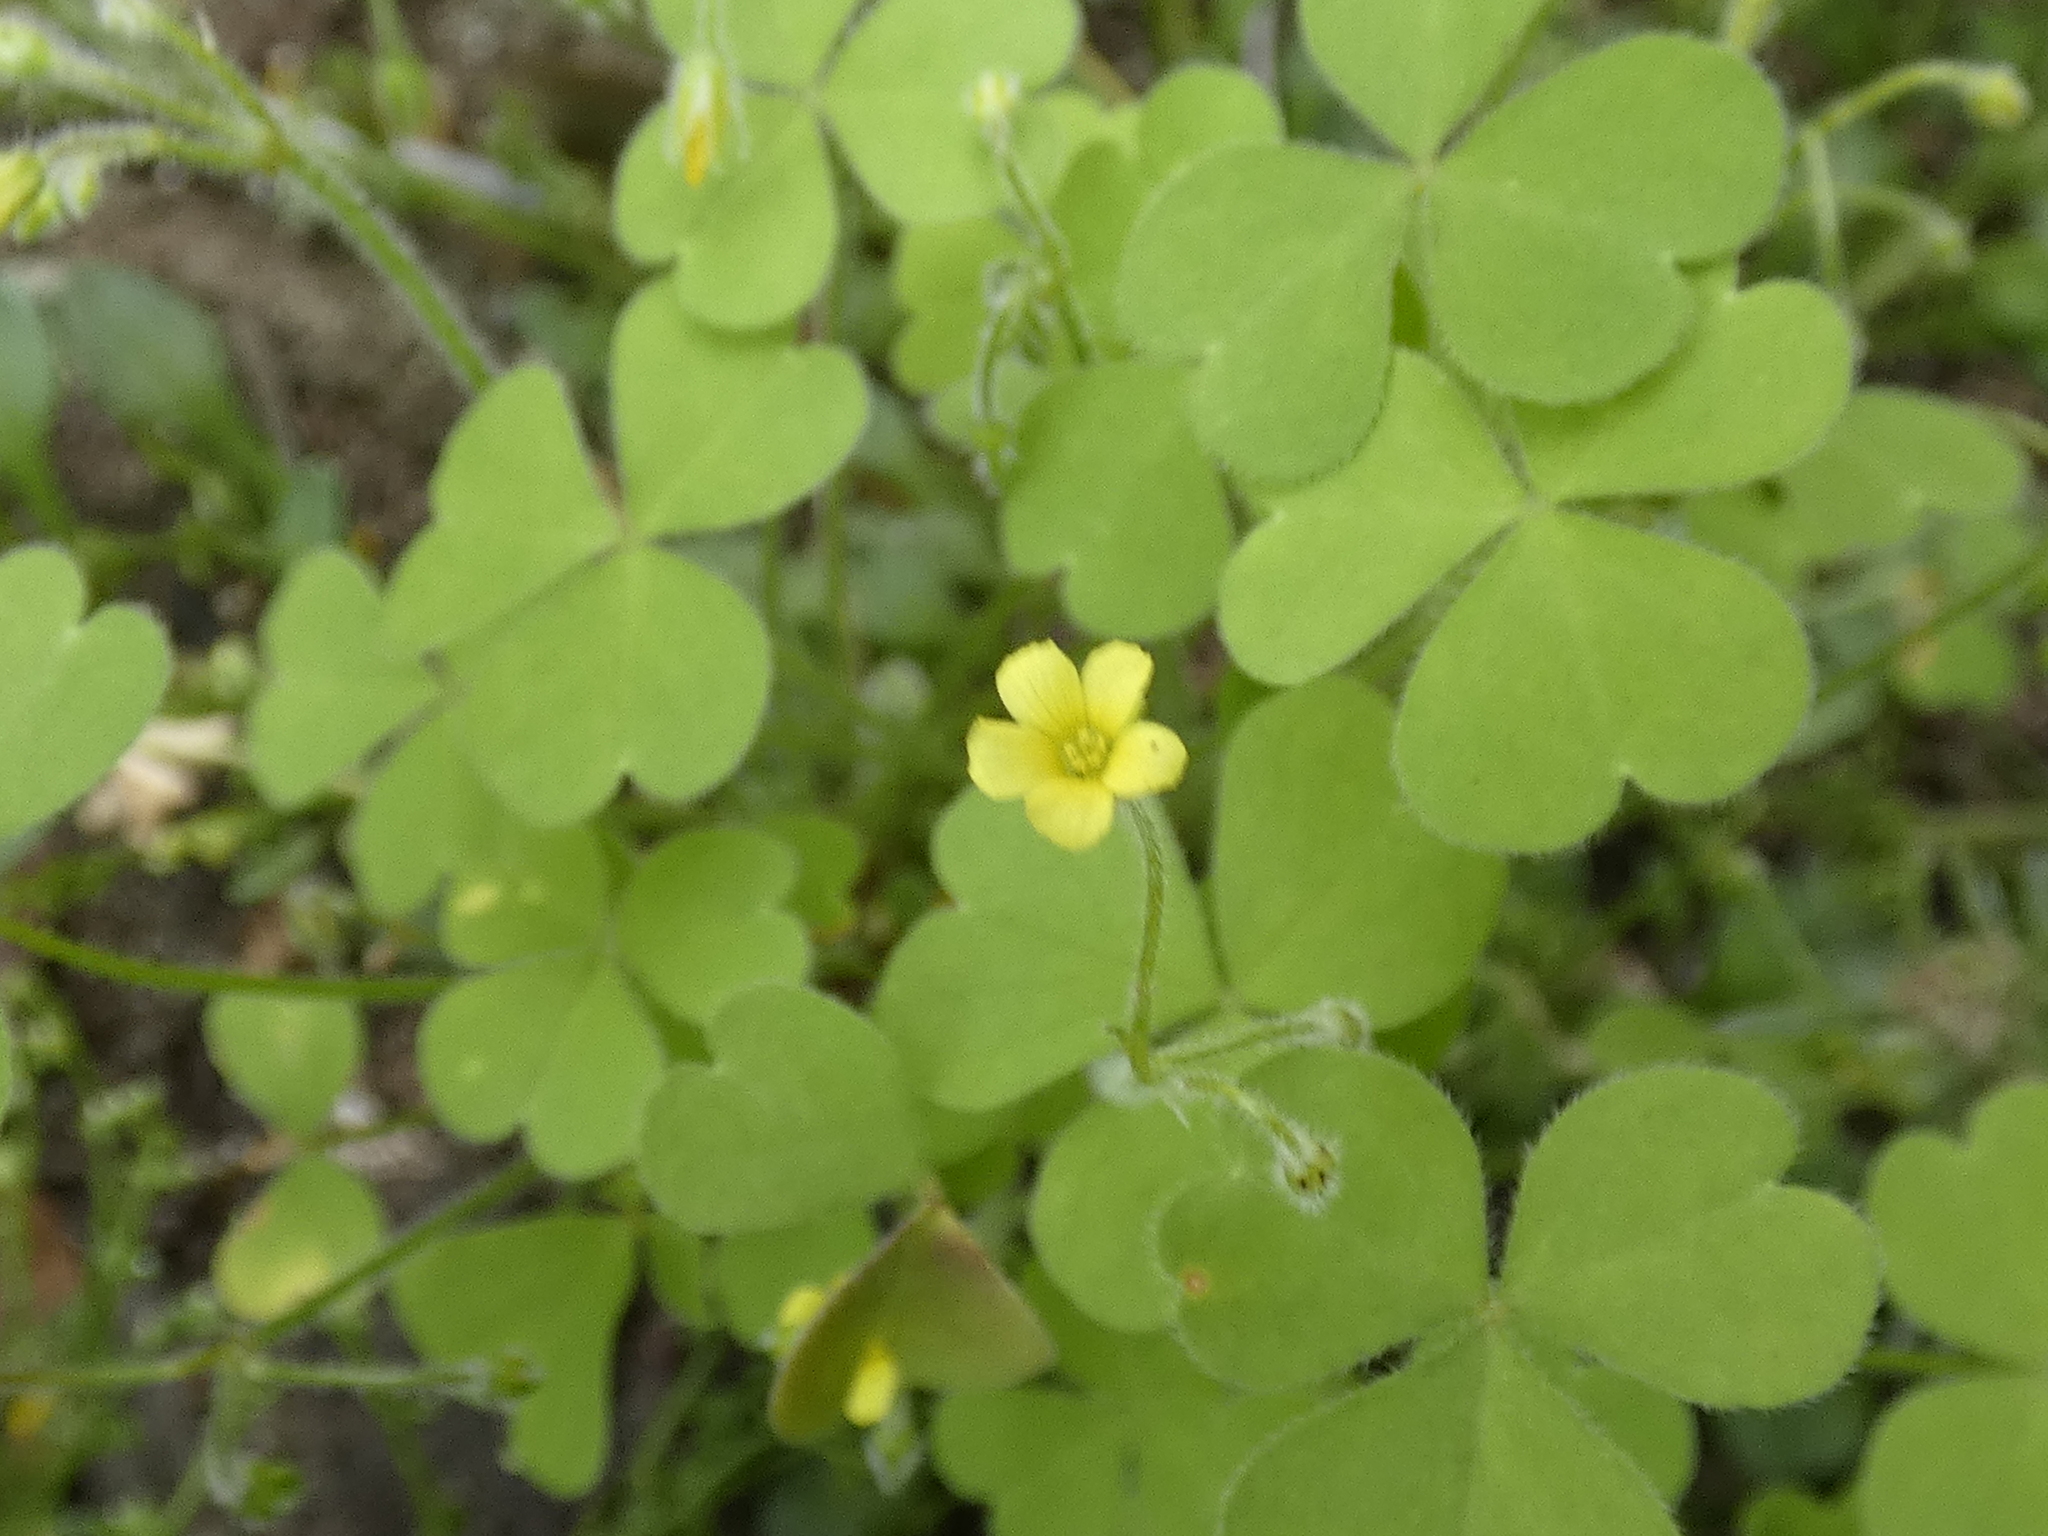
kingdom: Plantae
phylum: Tracheophyta
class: Magnoliopsida
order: Oxalidales
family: Oxalidaceae
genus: Oxalis
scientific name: Oxalis laxa
